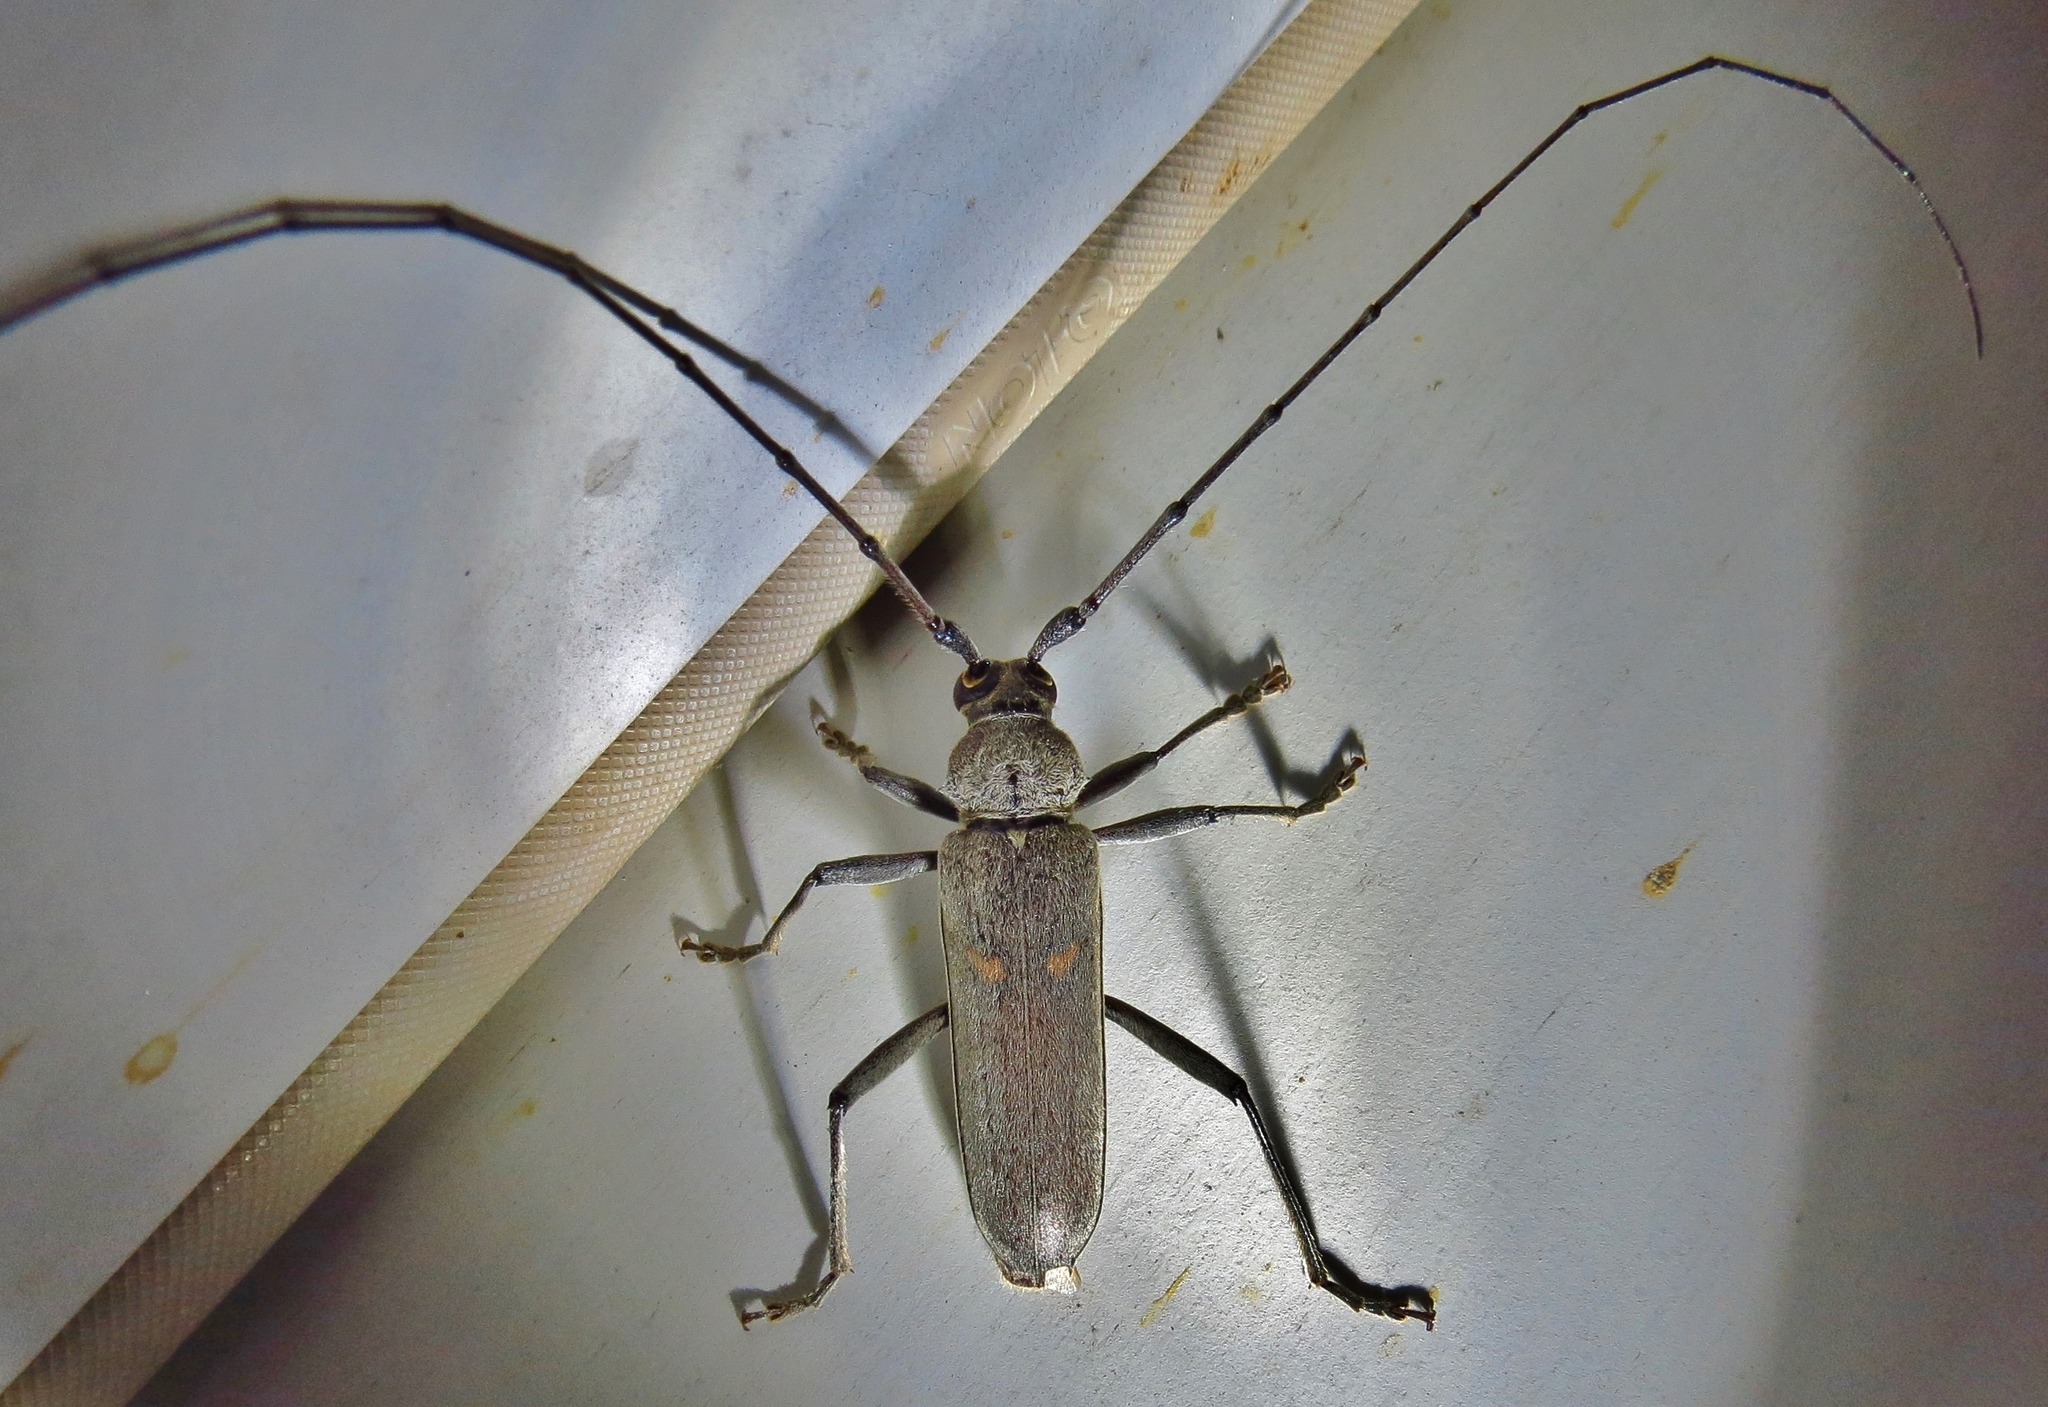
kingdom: Animalia
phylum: Arthropoda
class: Insecta
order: Coleoptera
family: Cerambycidae
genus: Knulliana
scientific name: Knulliana cincta
